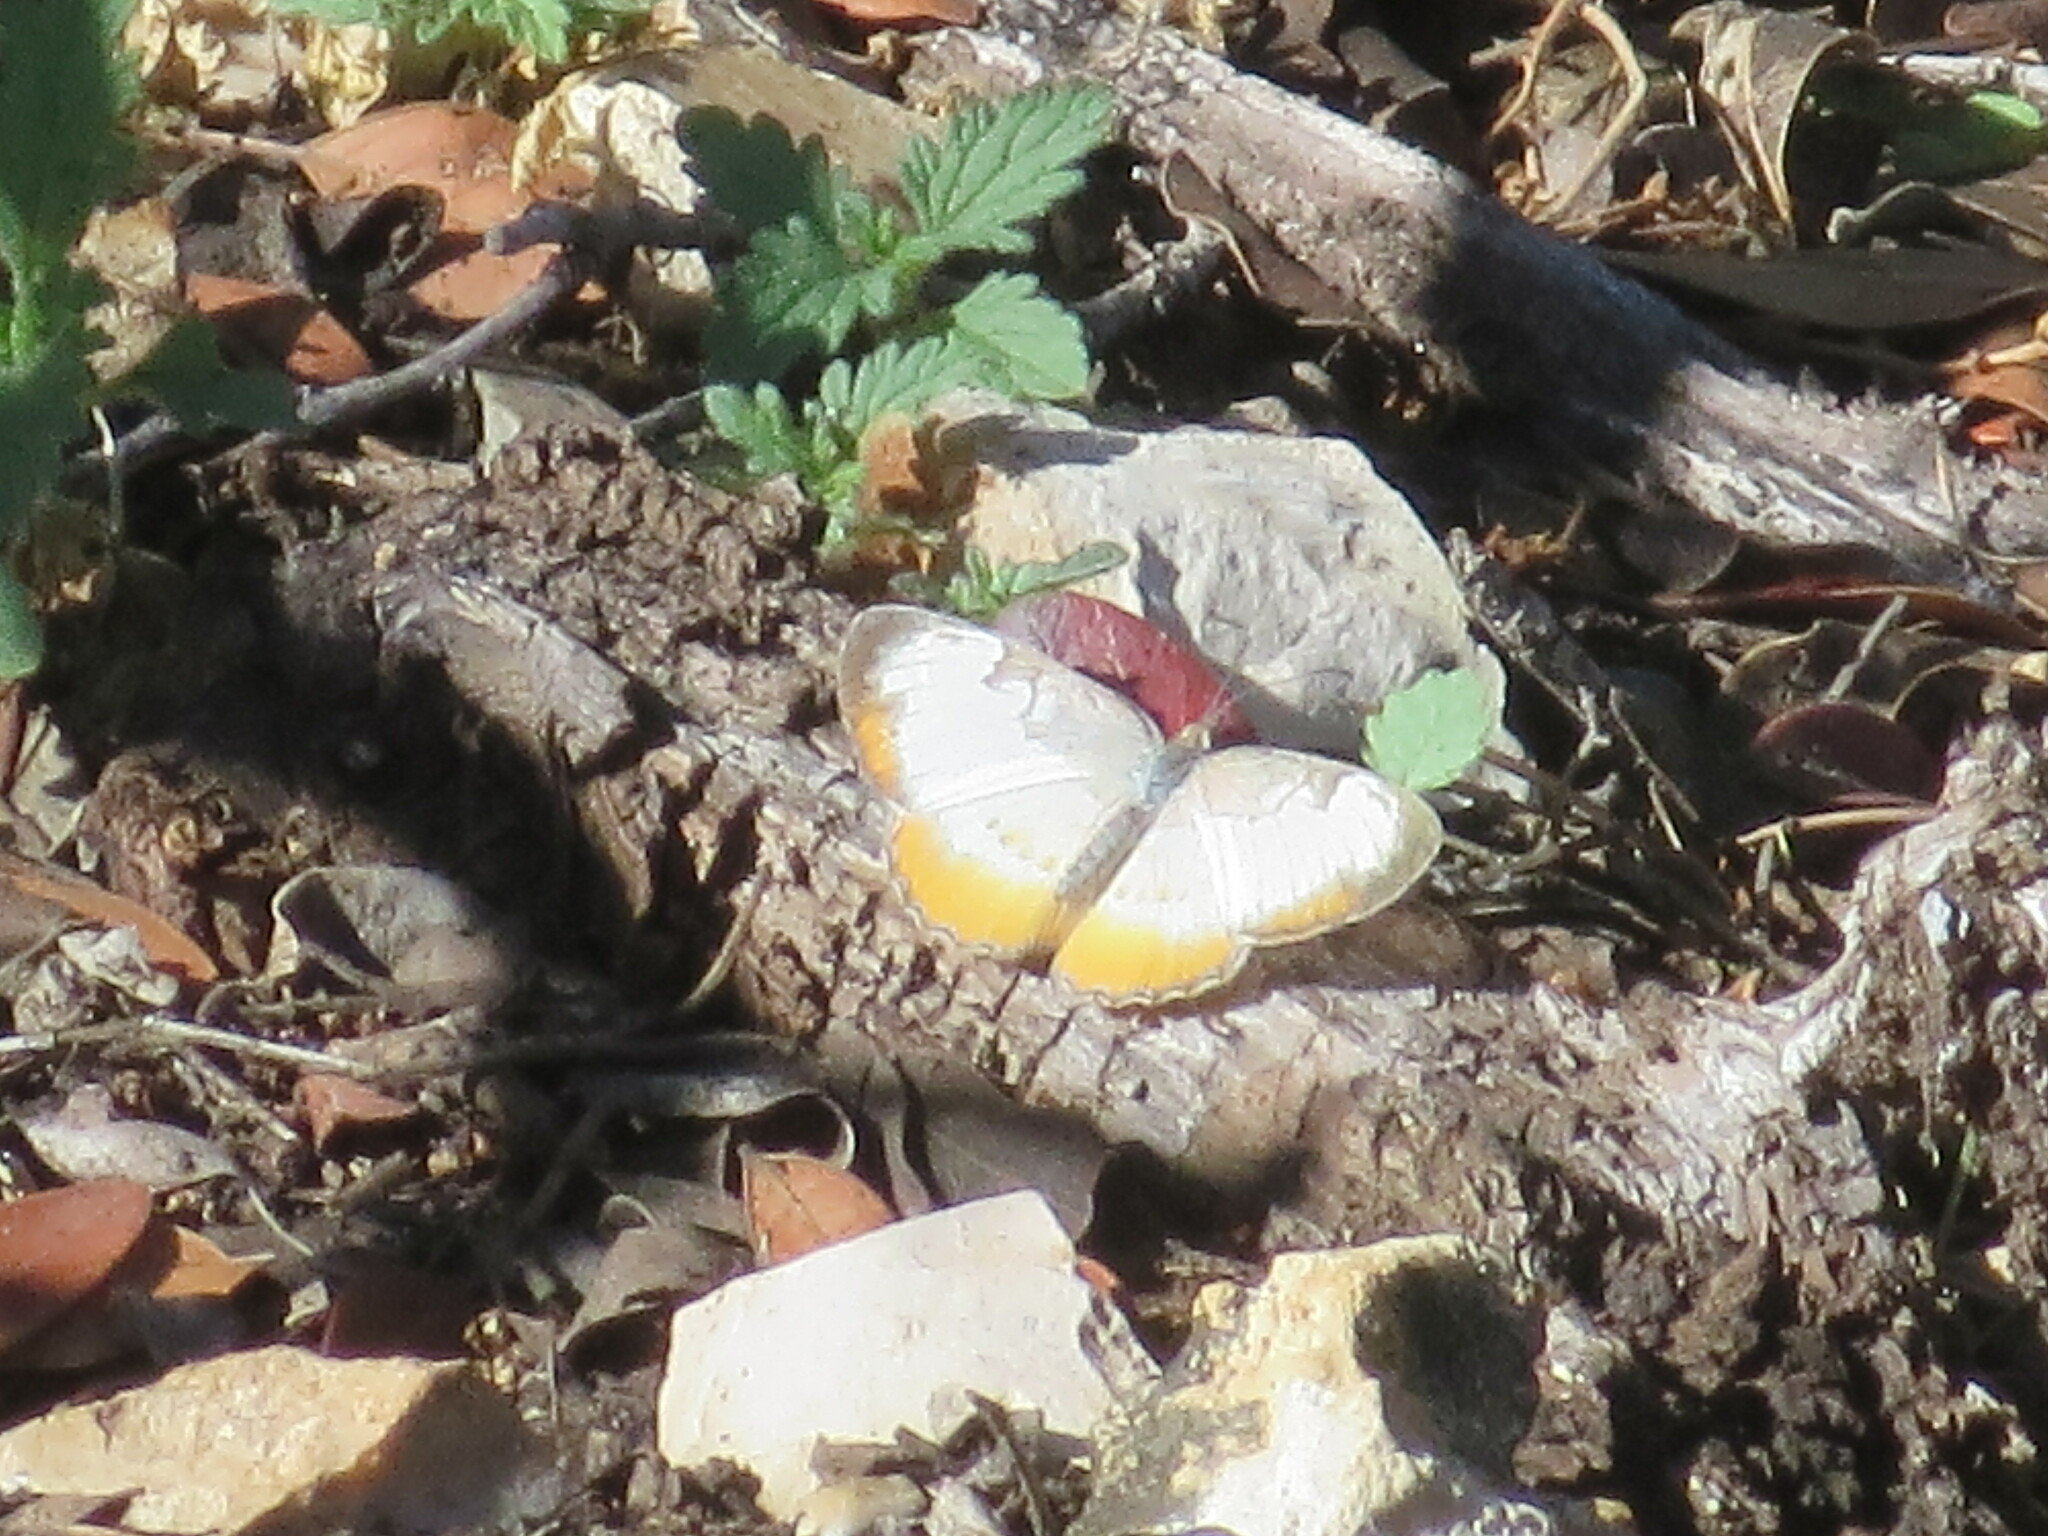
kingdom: Animalia
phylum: Arthropoda
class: Insecta
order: Lepidoptera
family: Nymphalidae
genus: Mestra
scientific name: Mestra amymone
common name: Common mestra
